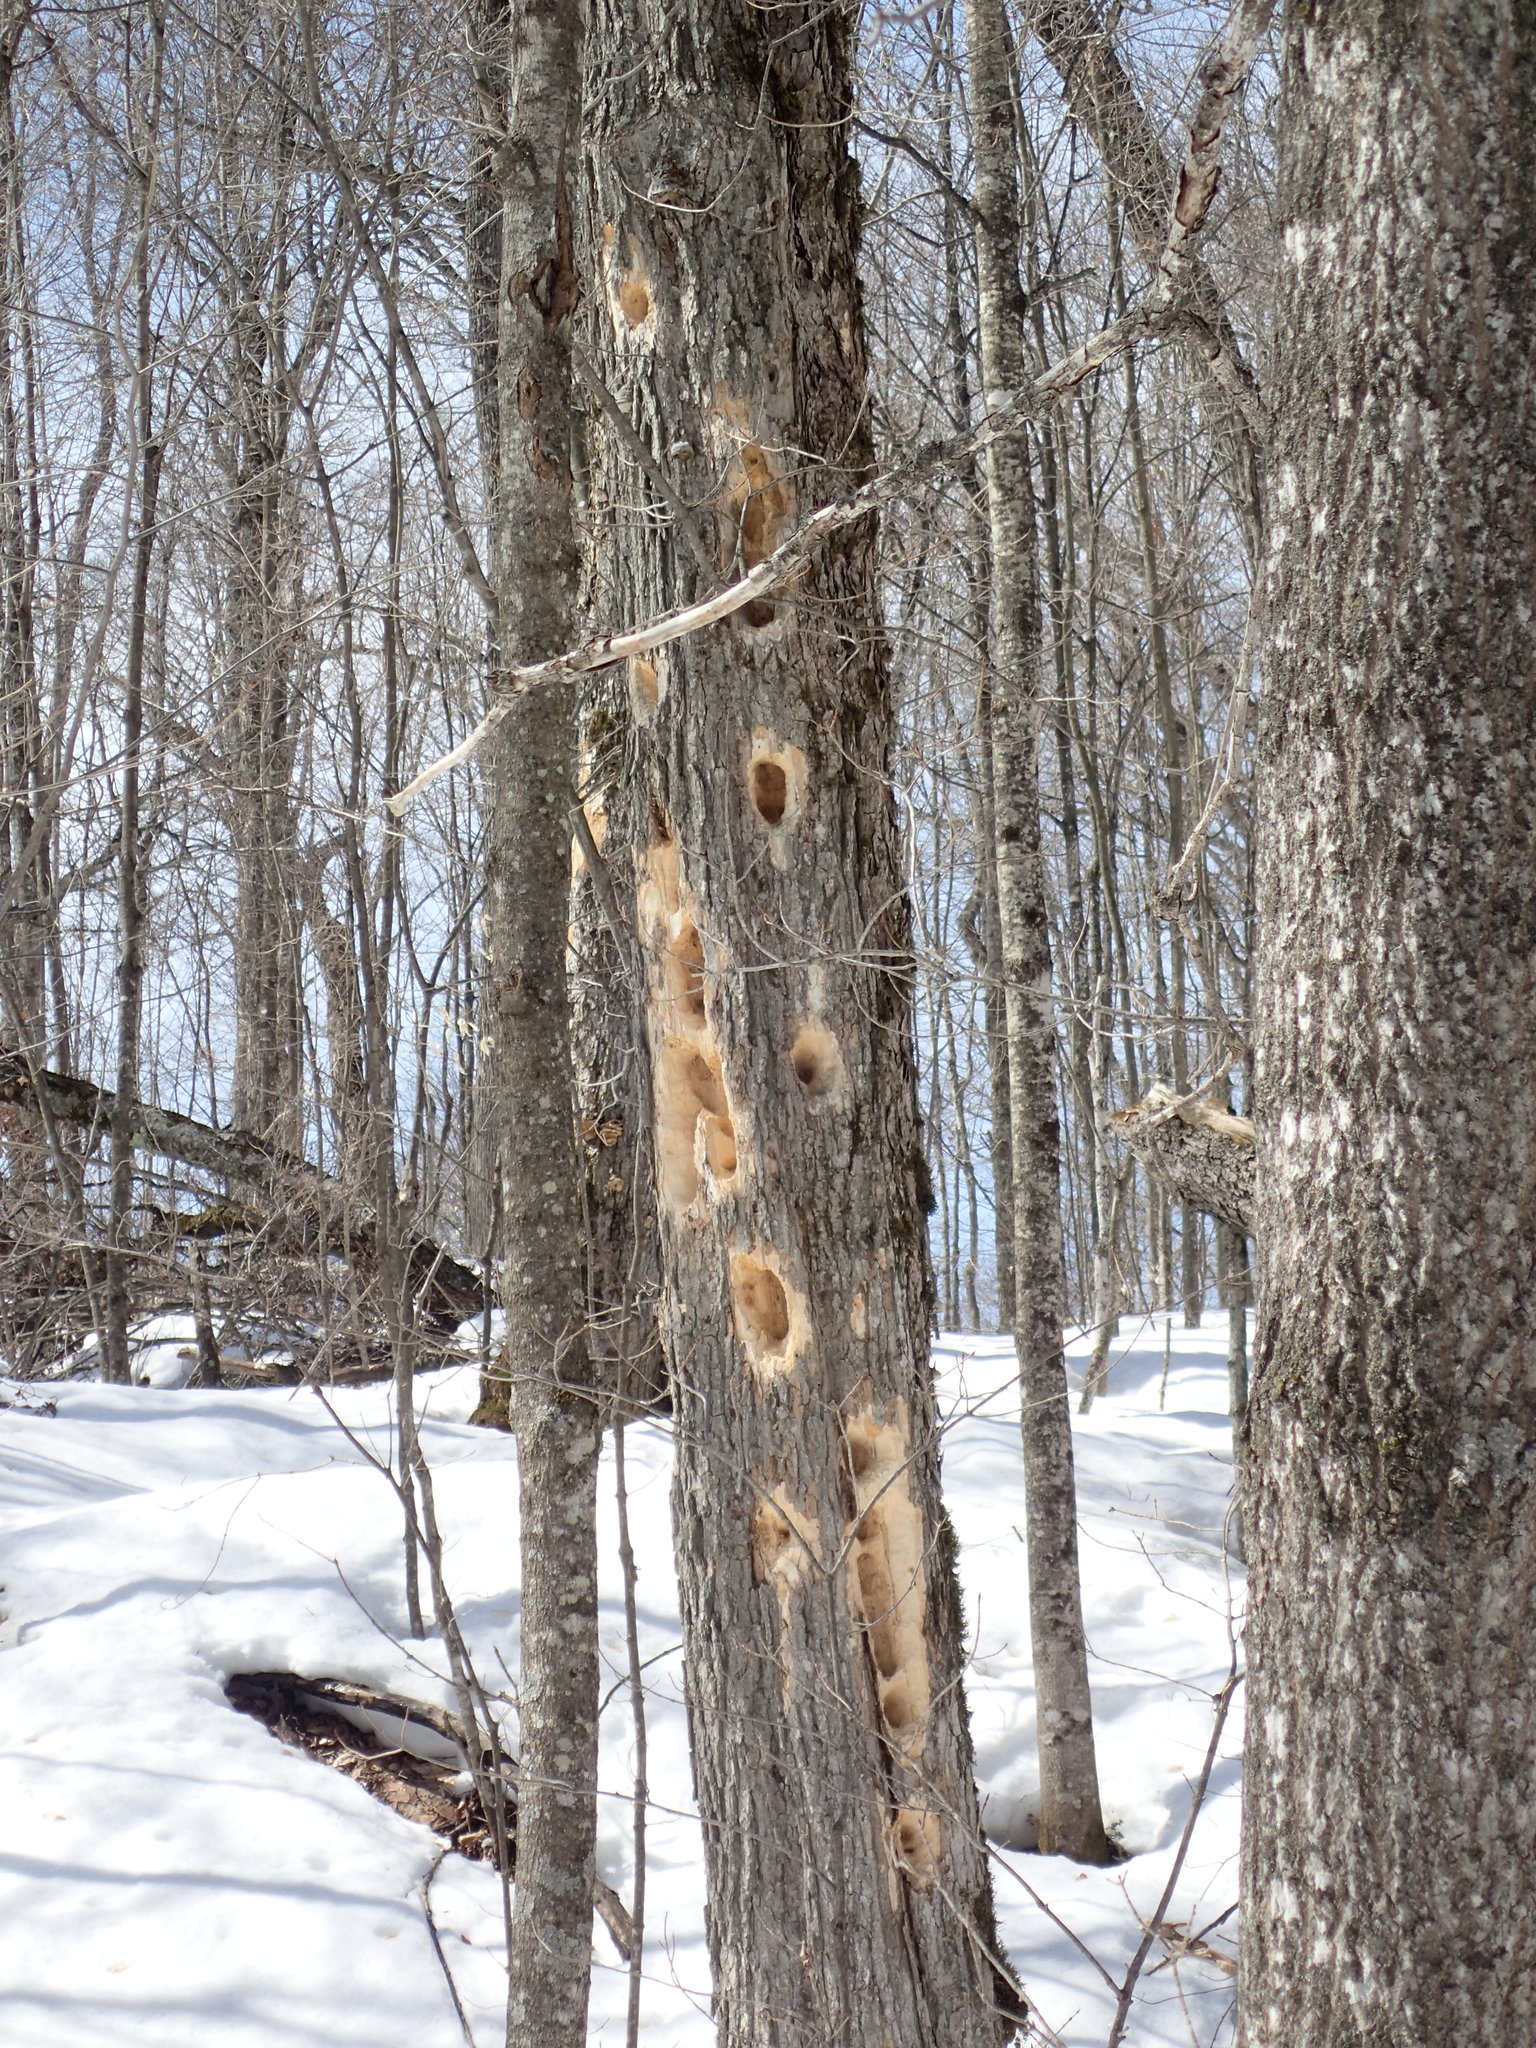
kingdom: Animalia
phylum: Chordata
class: Aves
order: Piciformes
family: Picidae
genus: Dryocopus
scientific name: Dryocopus pileatus
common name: Pileated woodpecker
